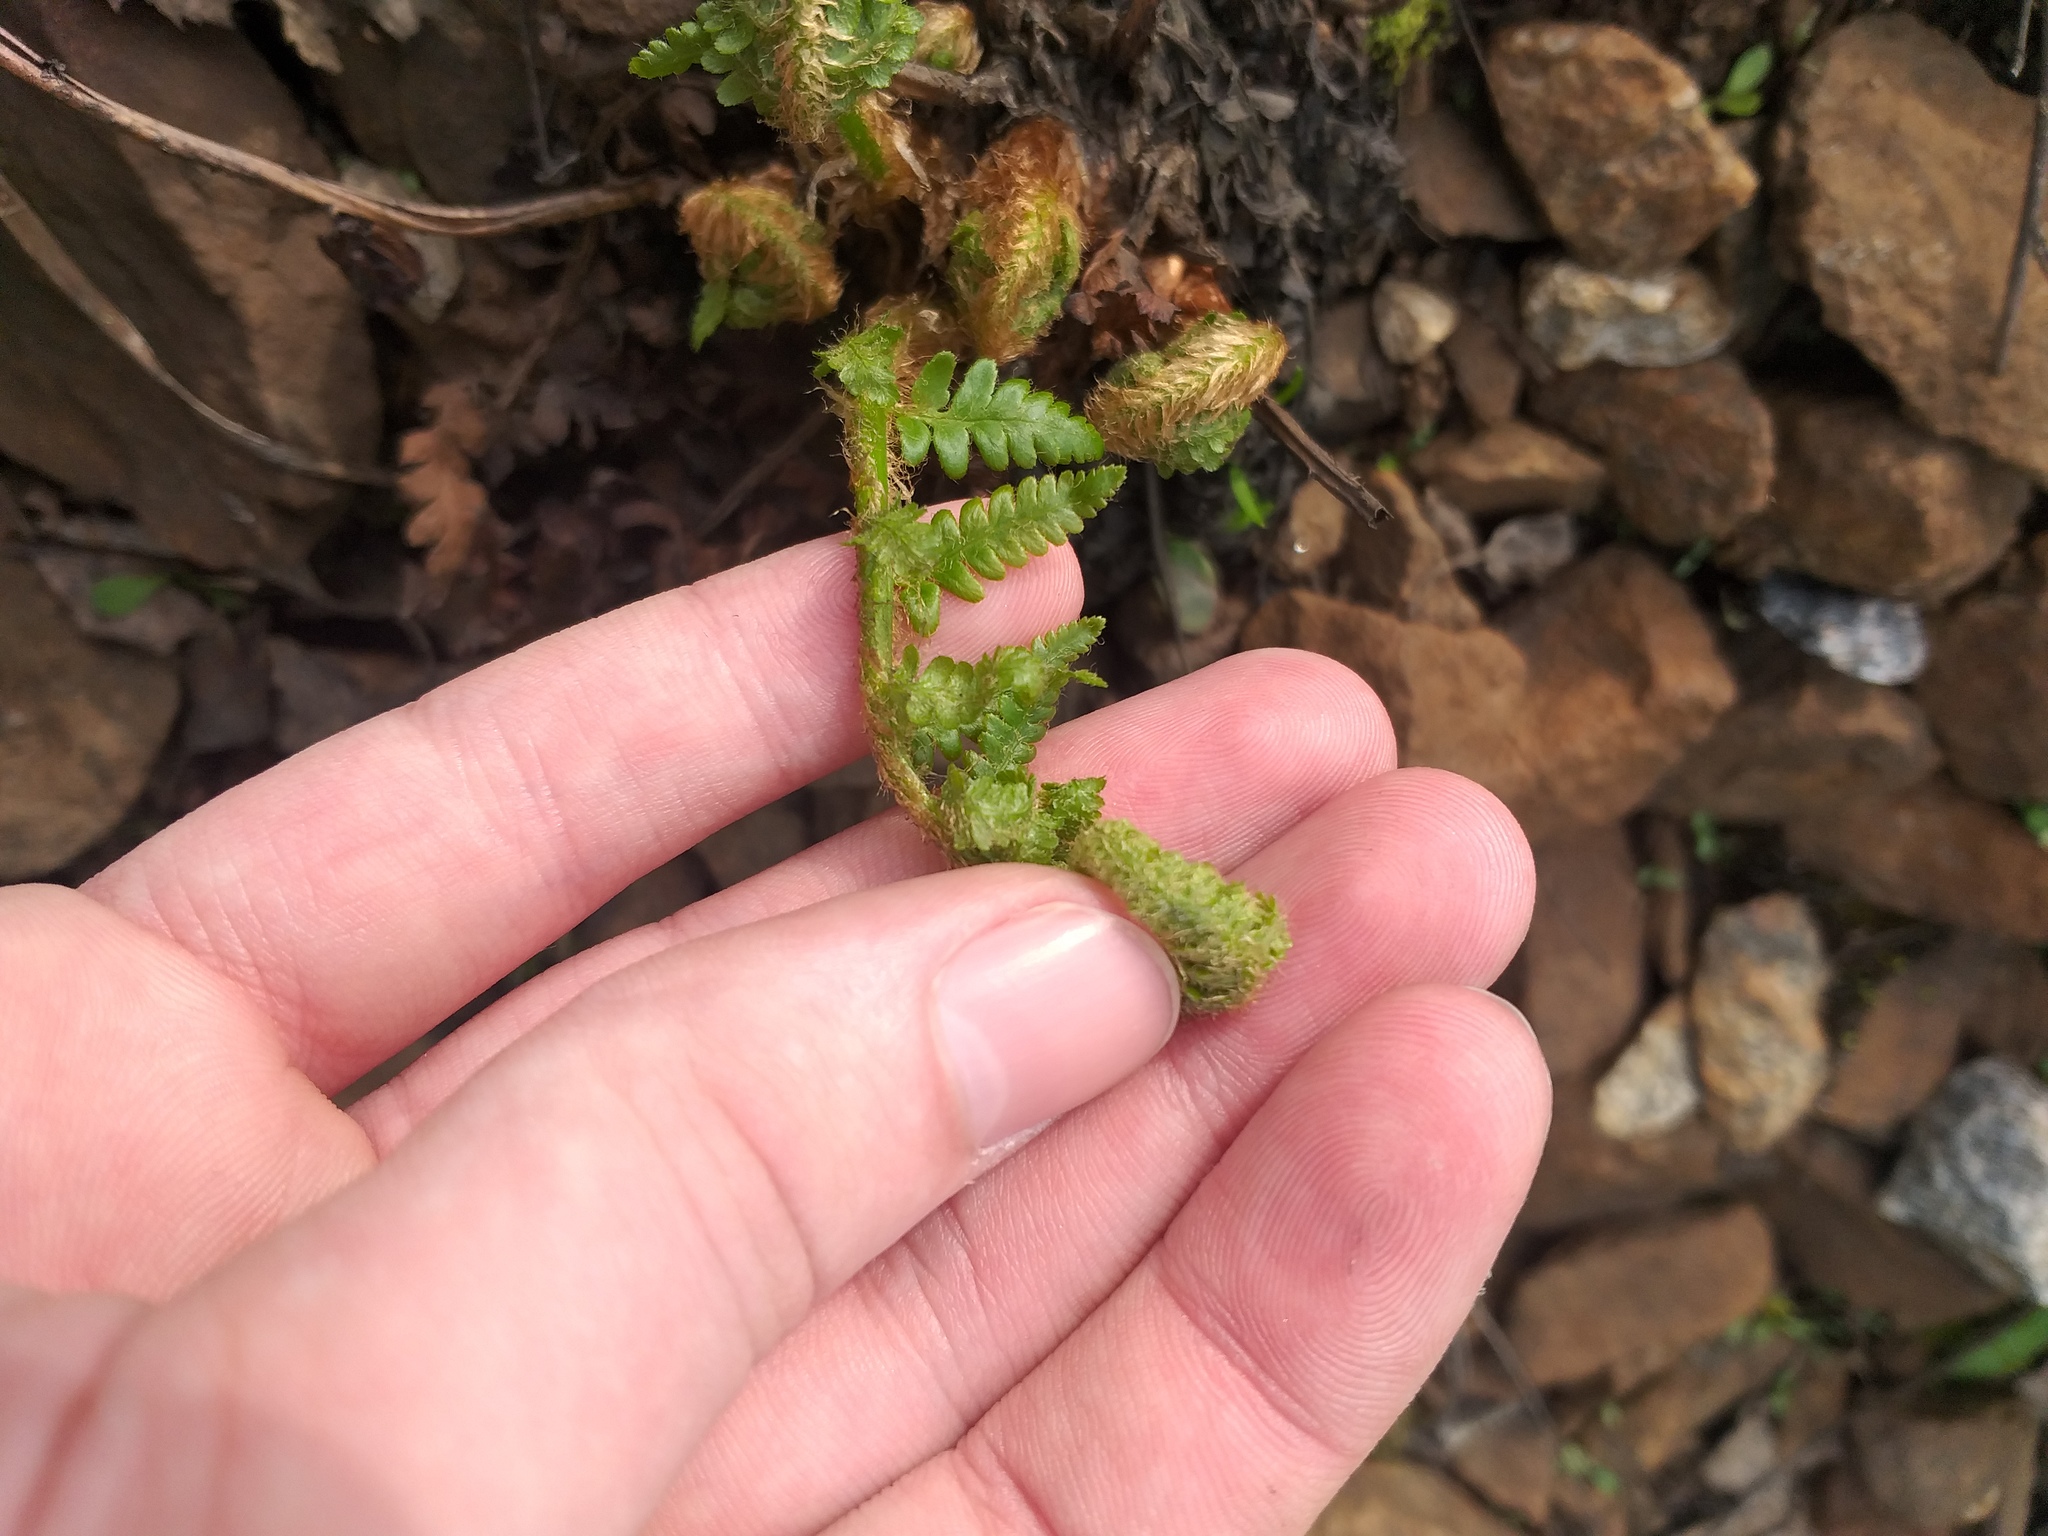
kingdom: Plantae
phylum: Tracheophyta
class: Polypodiopsida
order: Polypodiales
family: Dryopteridaceae
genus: Dryopteris
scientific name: Dryopteris filix-mas
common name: Male fern
